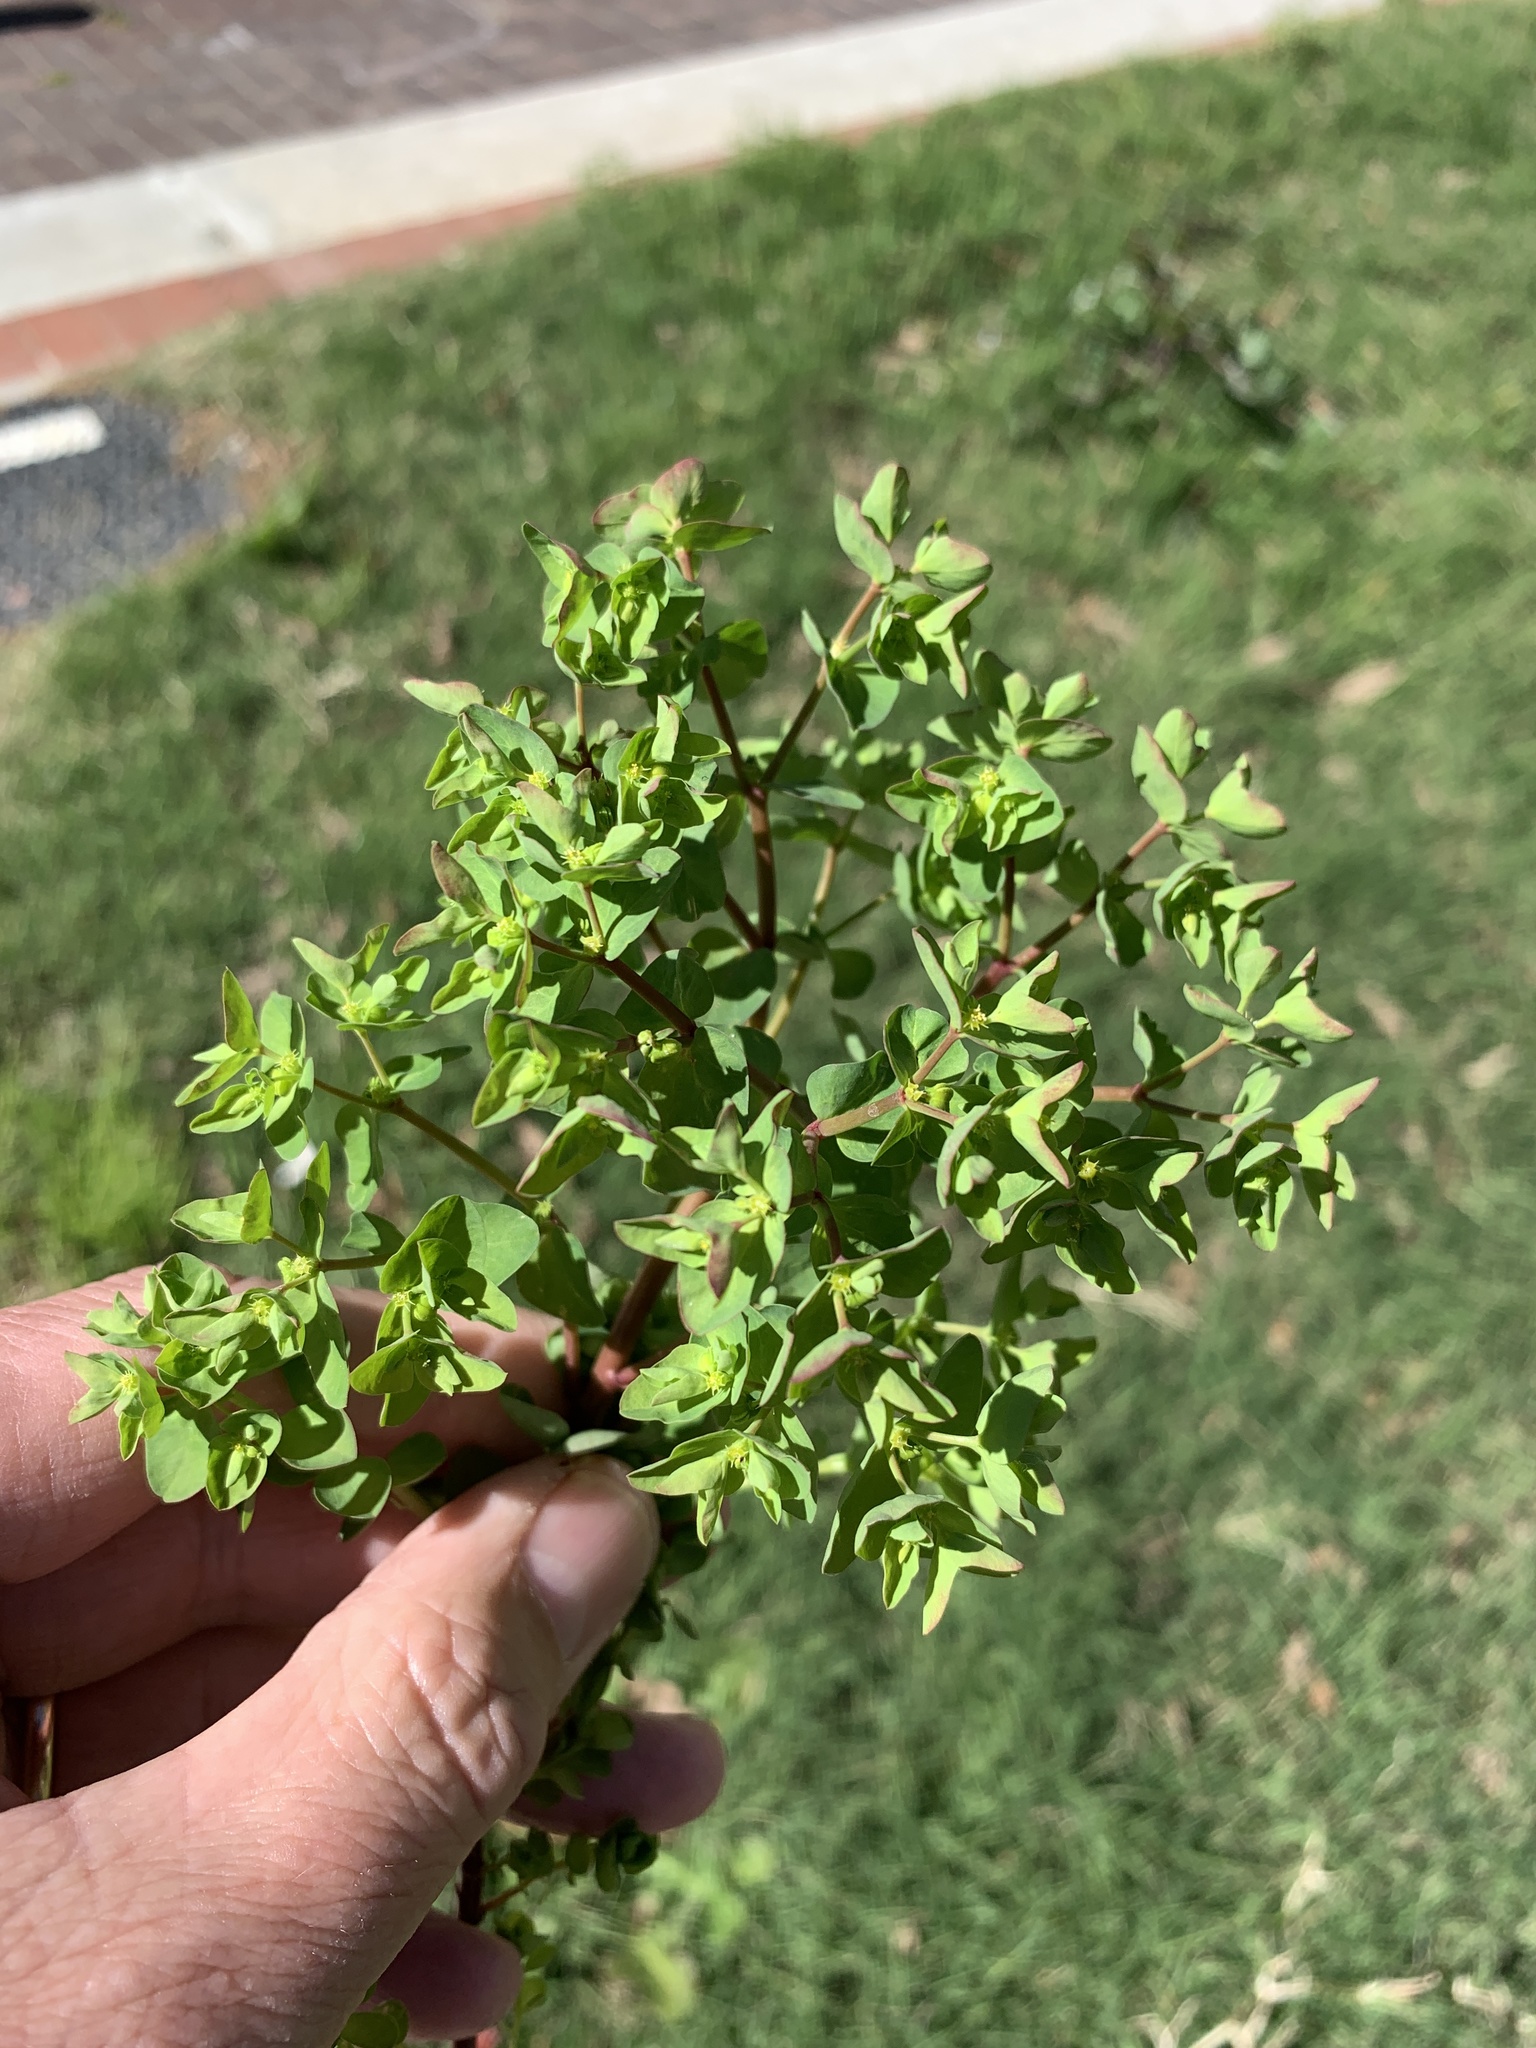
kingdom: Plantae
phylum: Tracheophyta
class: Magnoliopsida
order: Malpighiales
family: Euphorbiaceae
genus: Euphorbia
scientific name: Euphorbia peplus
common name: Petty spurge
